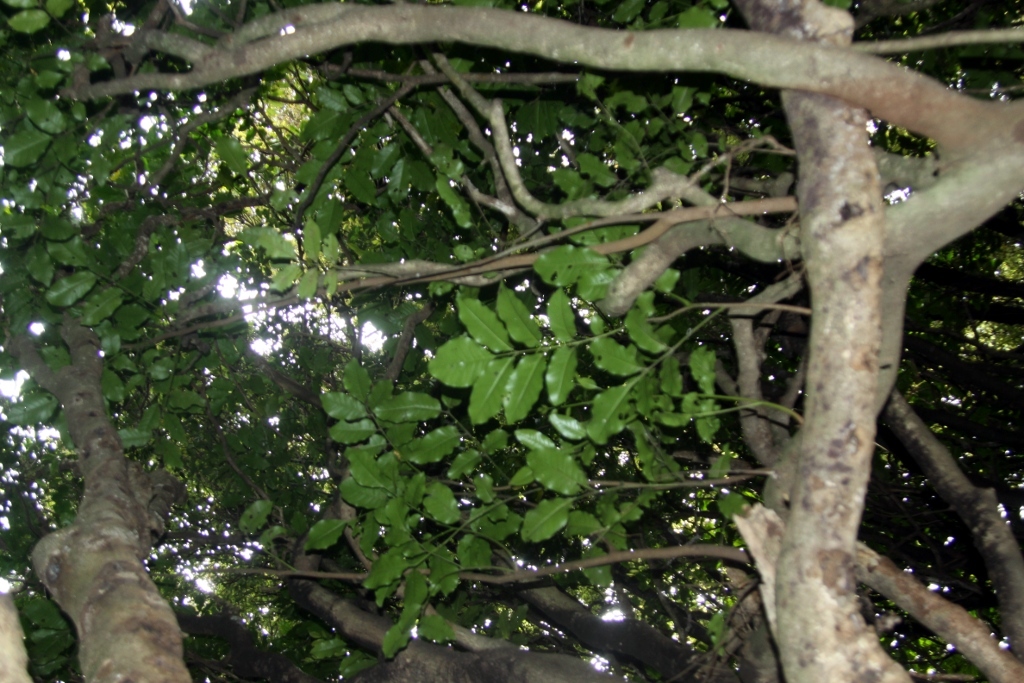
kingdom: Plantae
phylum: Tracheophyta
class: Magnoliopsida
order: Sapindales
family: Meliaceae
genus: Didymocheton
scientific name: Didymocheton spectabilis
